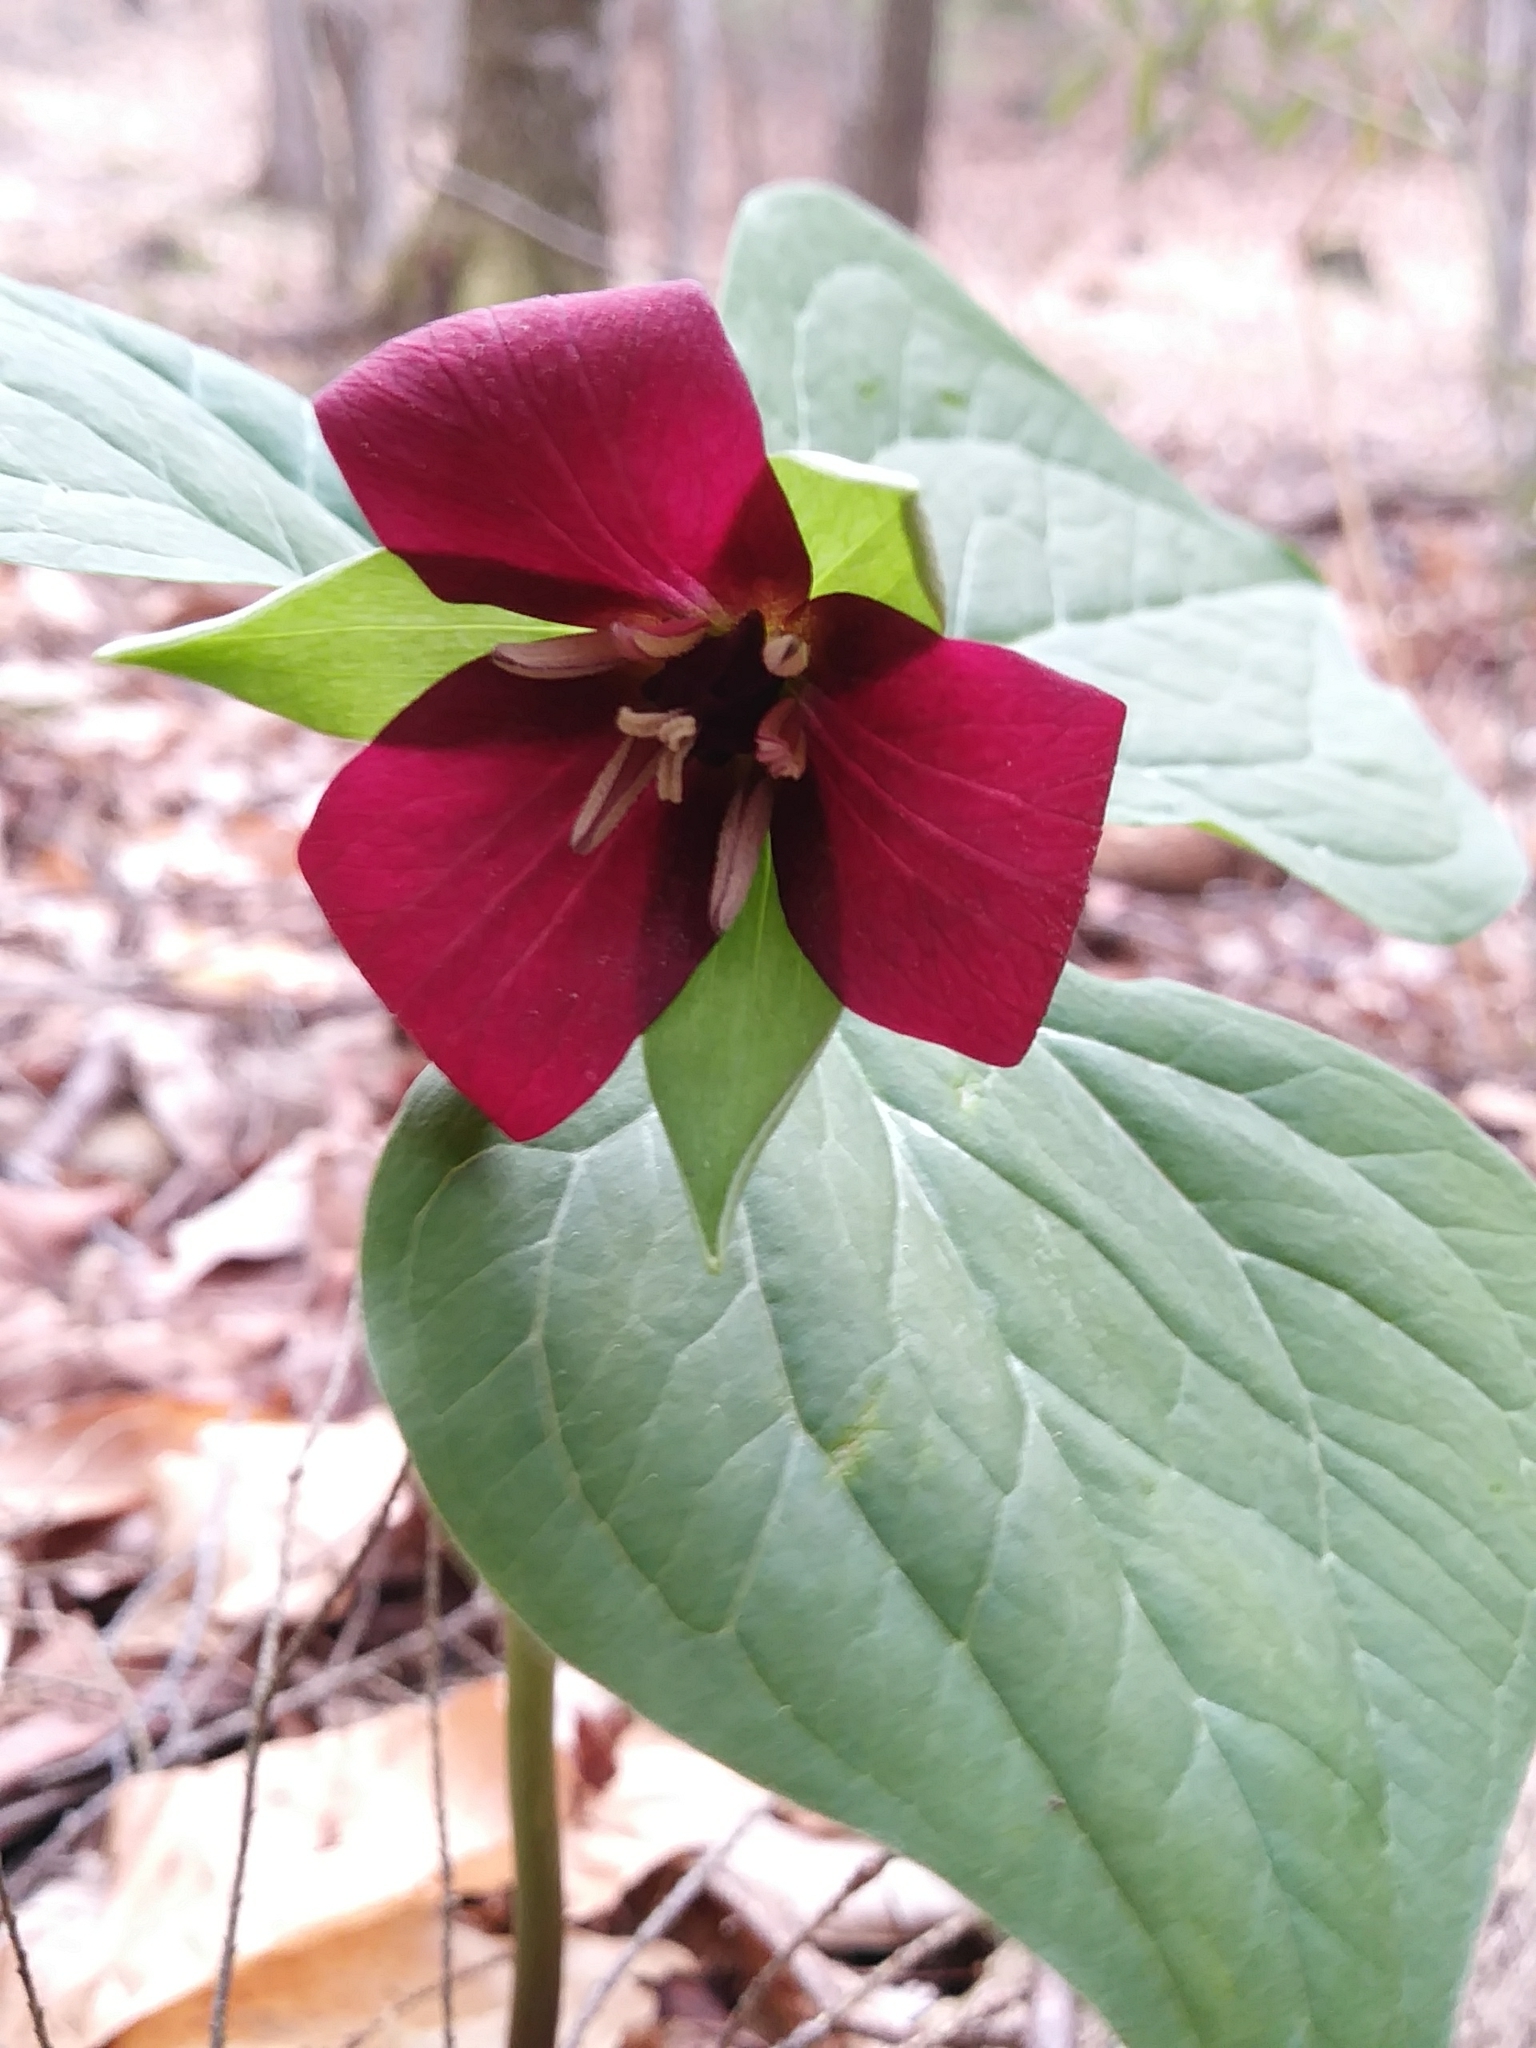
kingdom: Plantae
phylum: Tracheophyta
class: Liliopsida
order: Liliales
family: Melanthiaceae
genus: Trillium
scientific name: Trillium erectum
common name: Purple trillium
